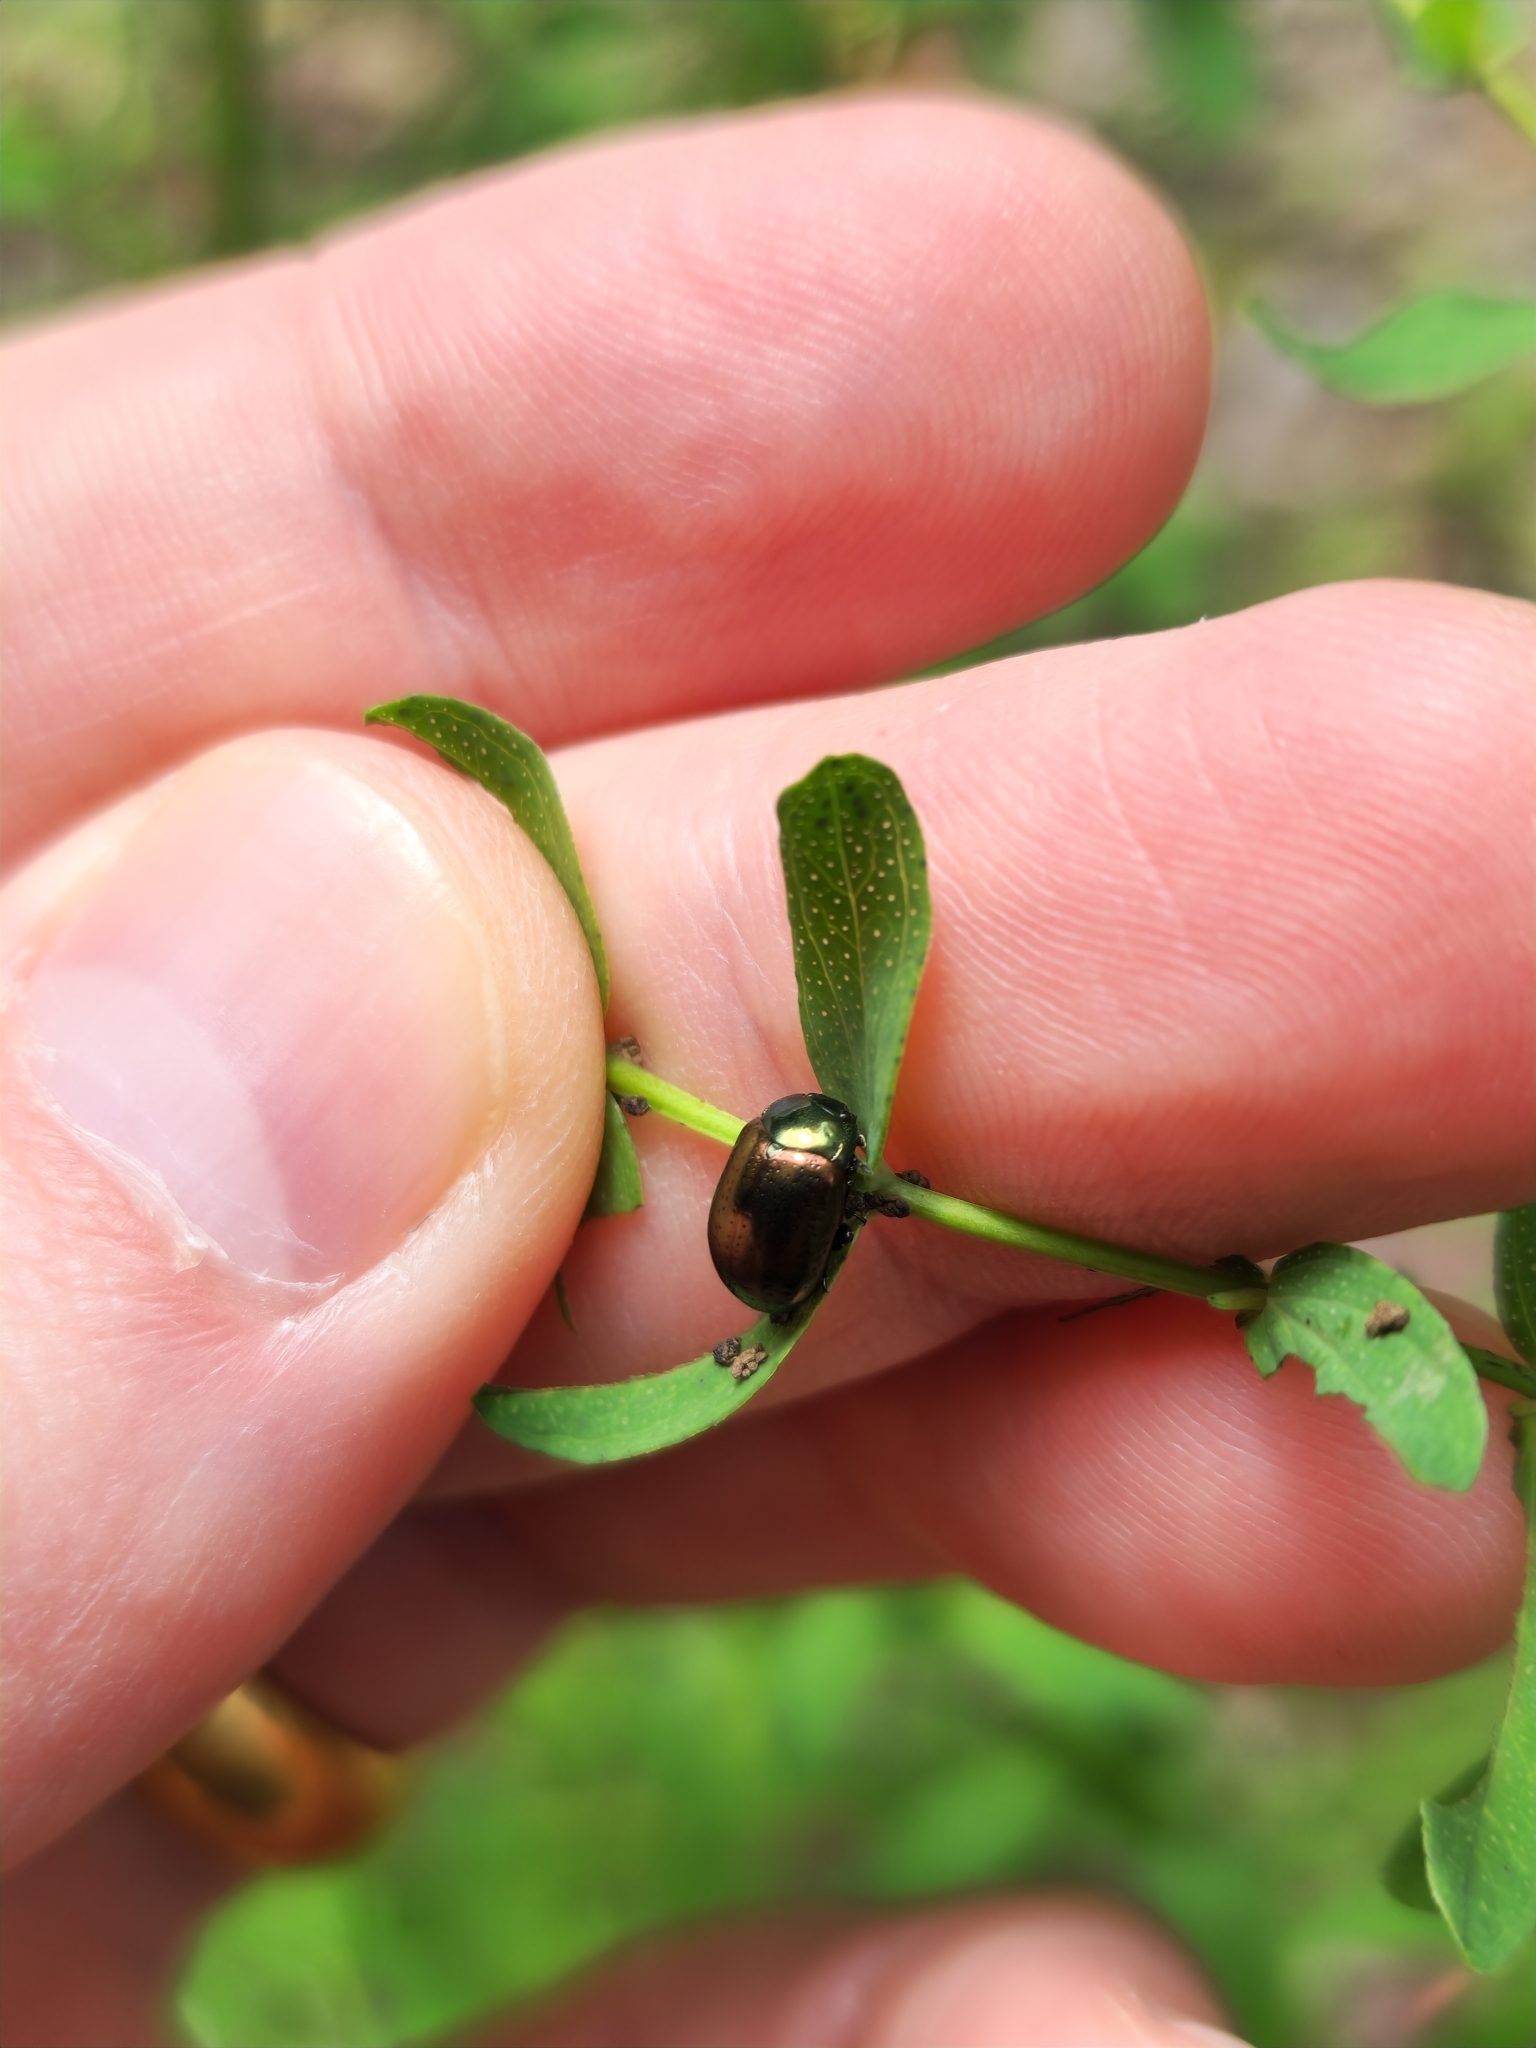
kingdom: Animalia
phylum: Arthropoda
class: Insecta
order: Coleoptera
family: Chrysomelidae
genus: Chrysolina
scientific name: Chrysolina hyperici
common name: St. johnswort beetle
